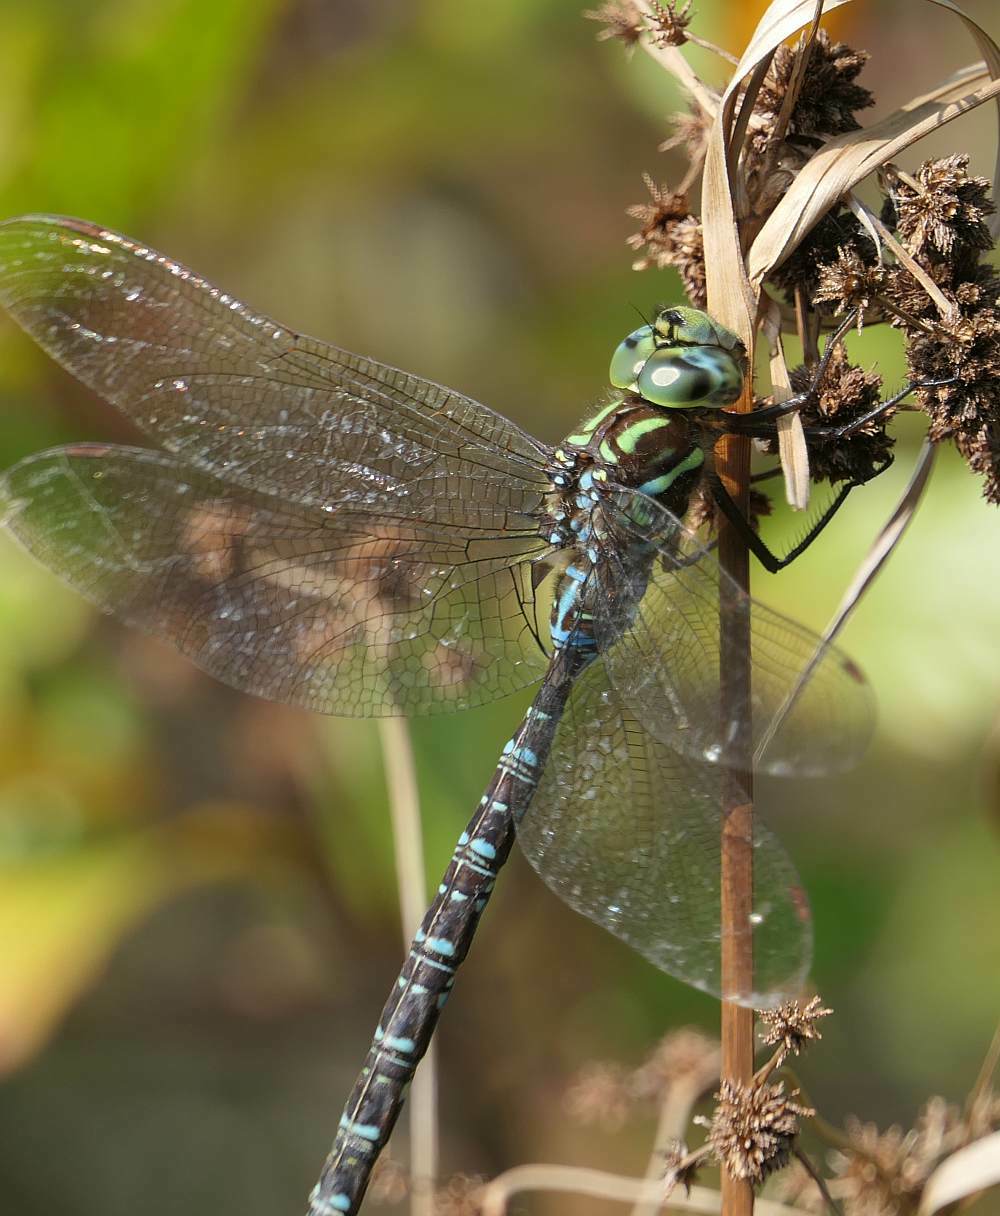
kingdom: Animalia
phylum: Arthropoda
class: Insecta
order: Odonata
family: Aeshnidae
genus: Aeshna
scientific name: Aeshna umbrosa
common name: Shadow darner
